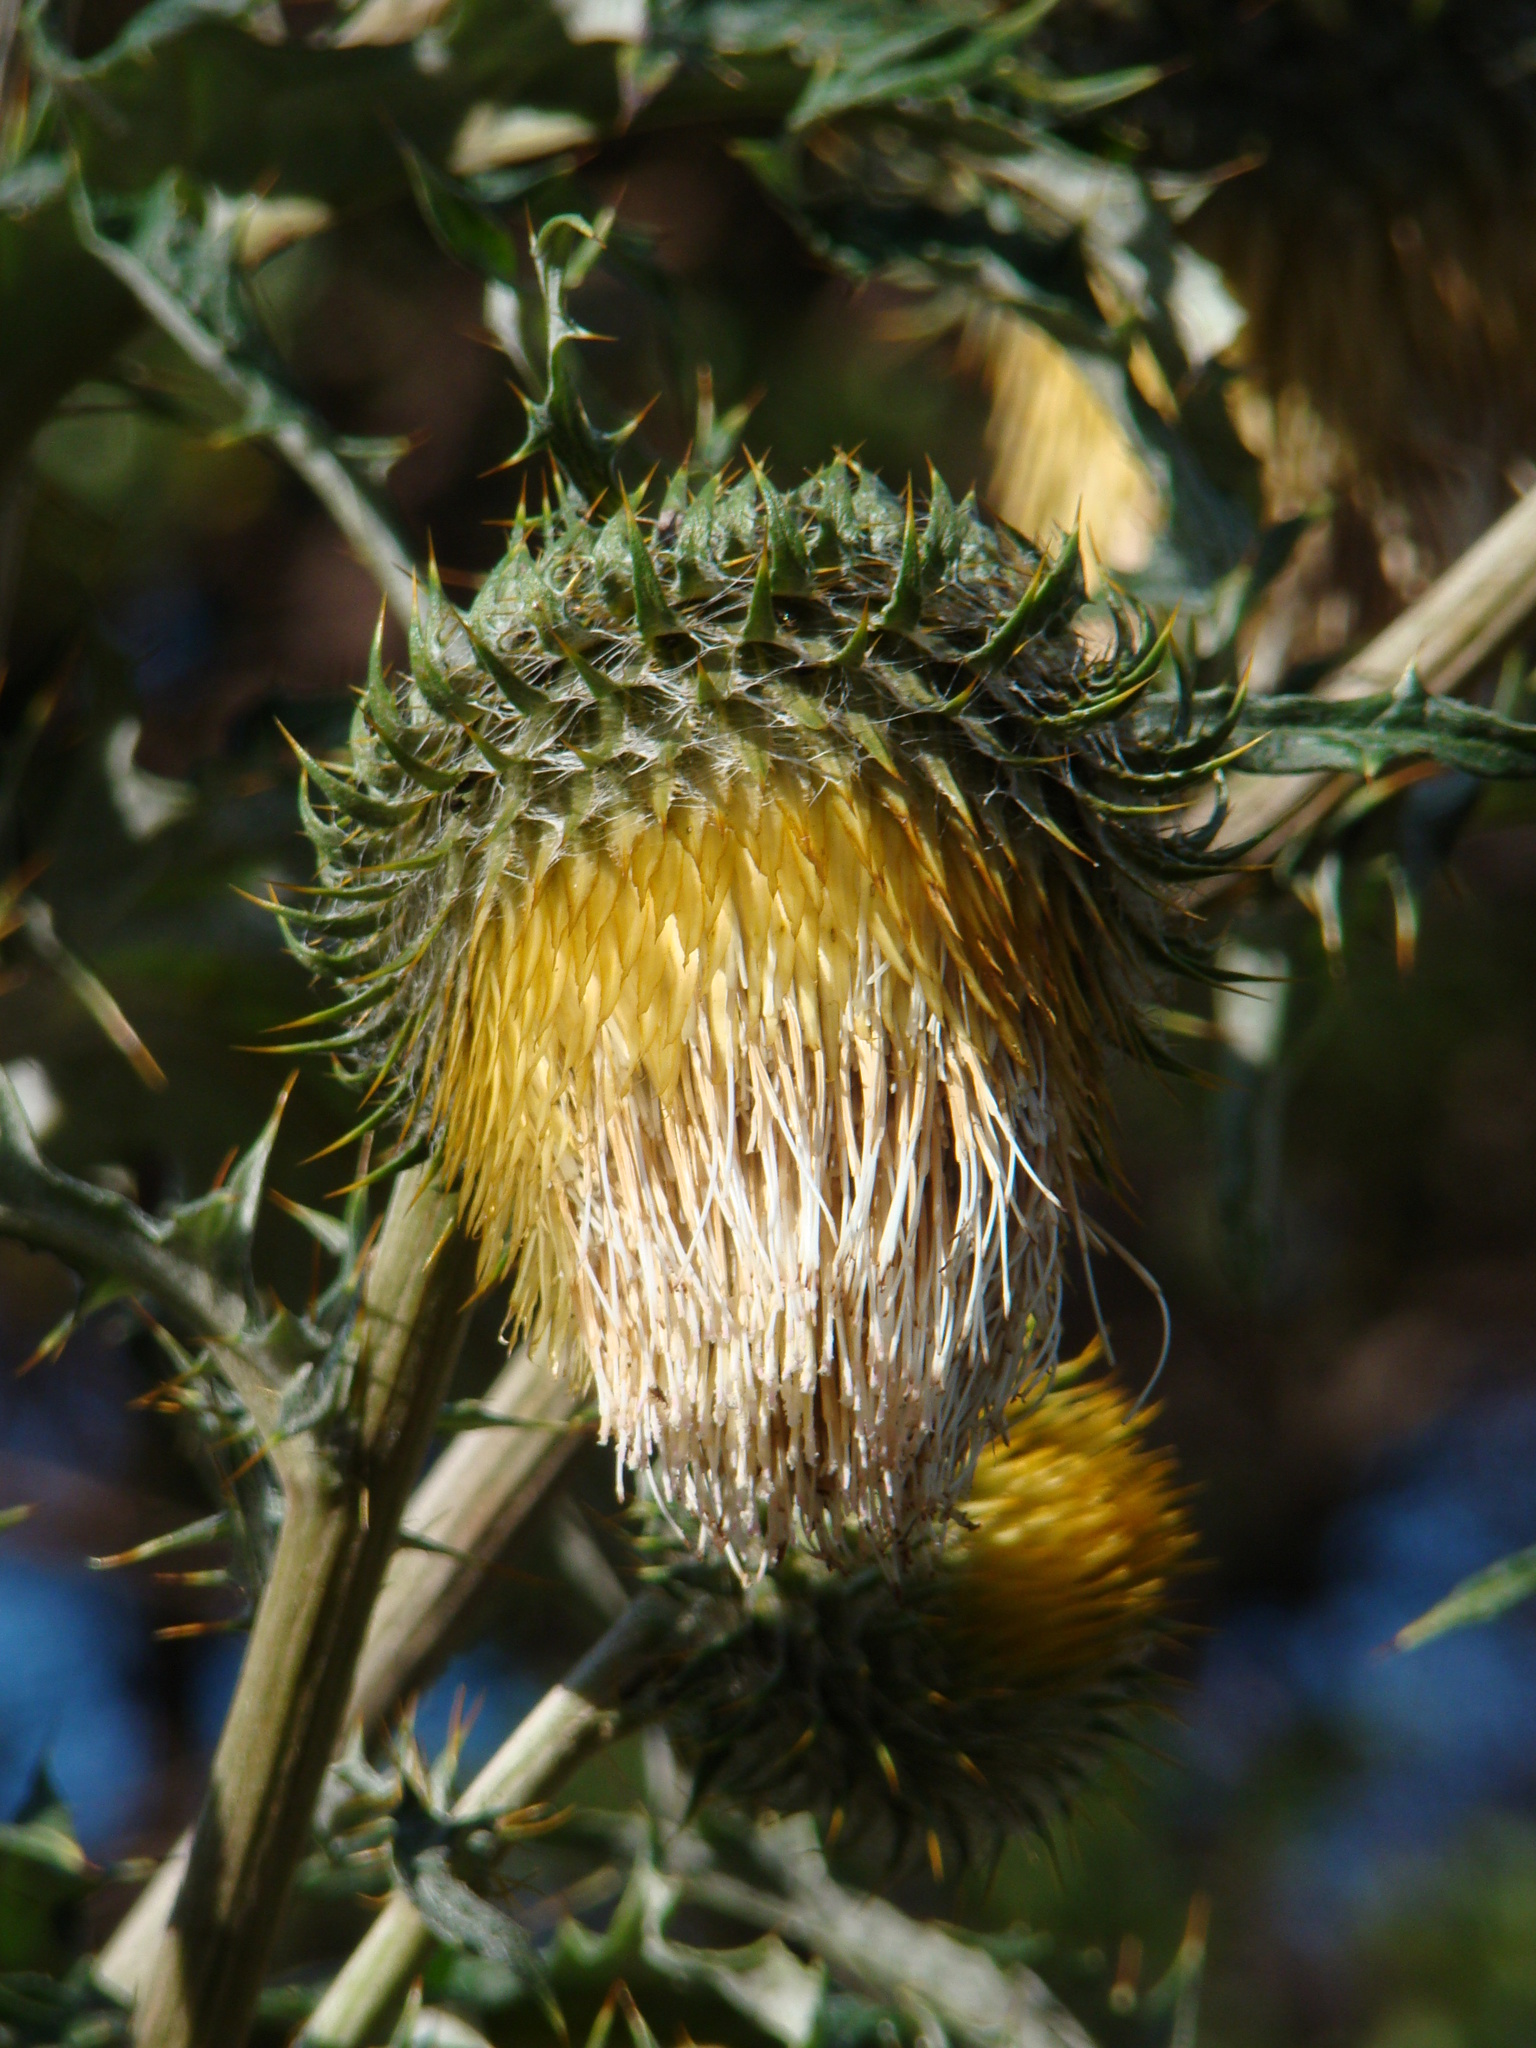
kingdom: Plantae
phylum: Tracheophyta
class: Magnoliopsida
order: Asterales
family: Asteraceae
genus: Cirsium
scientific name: Cirsium subcoriaceum
